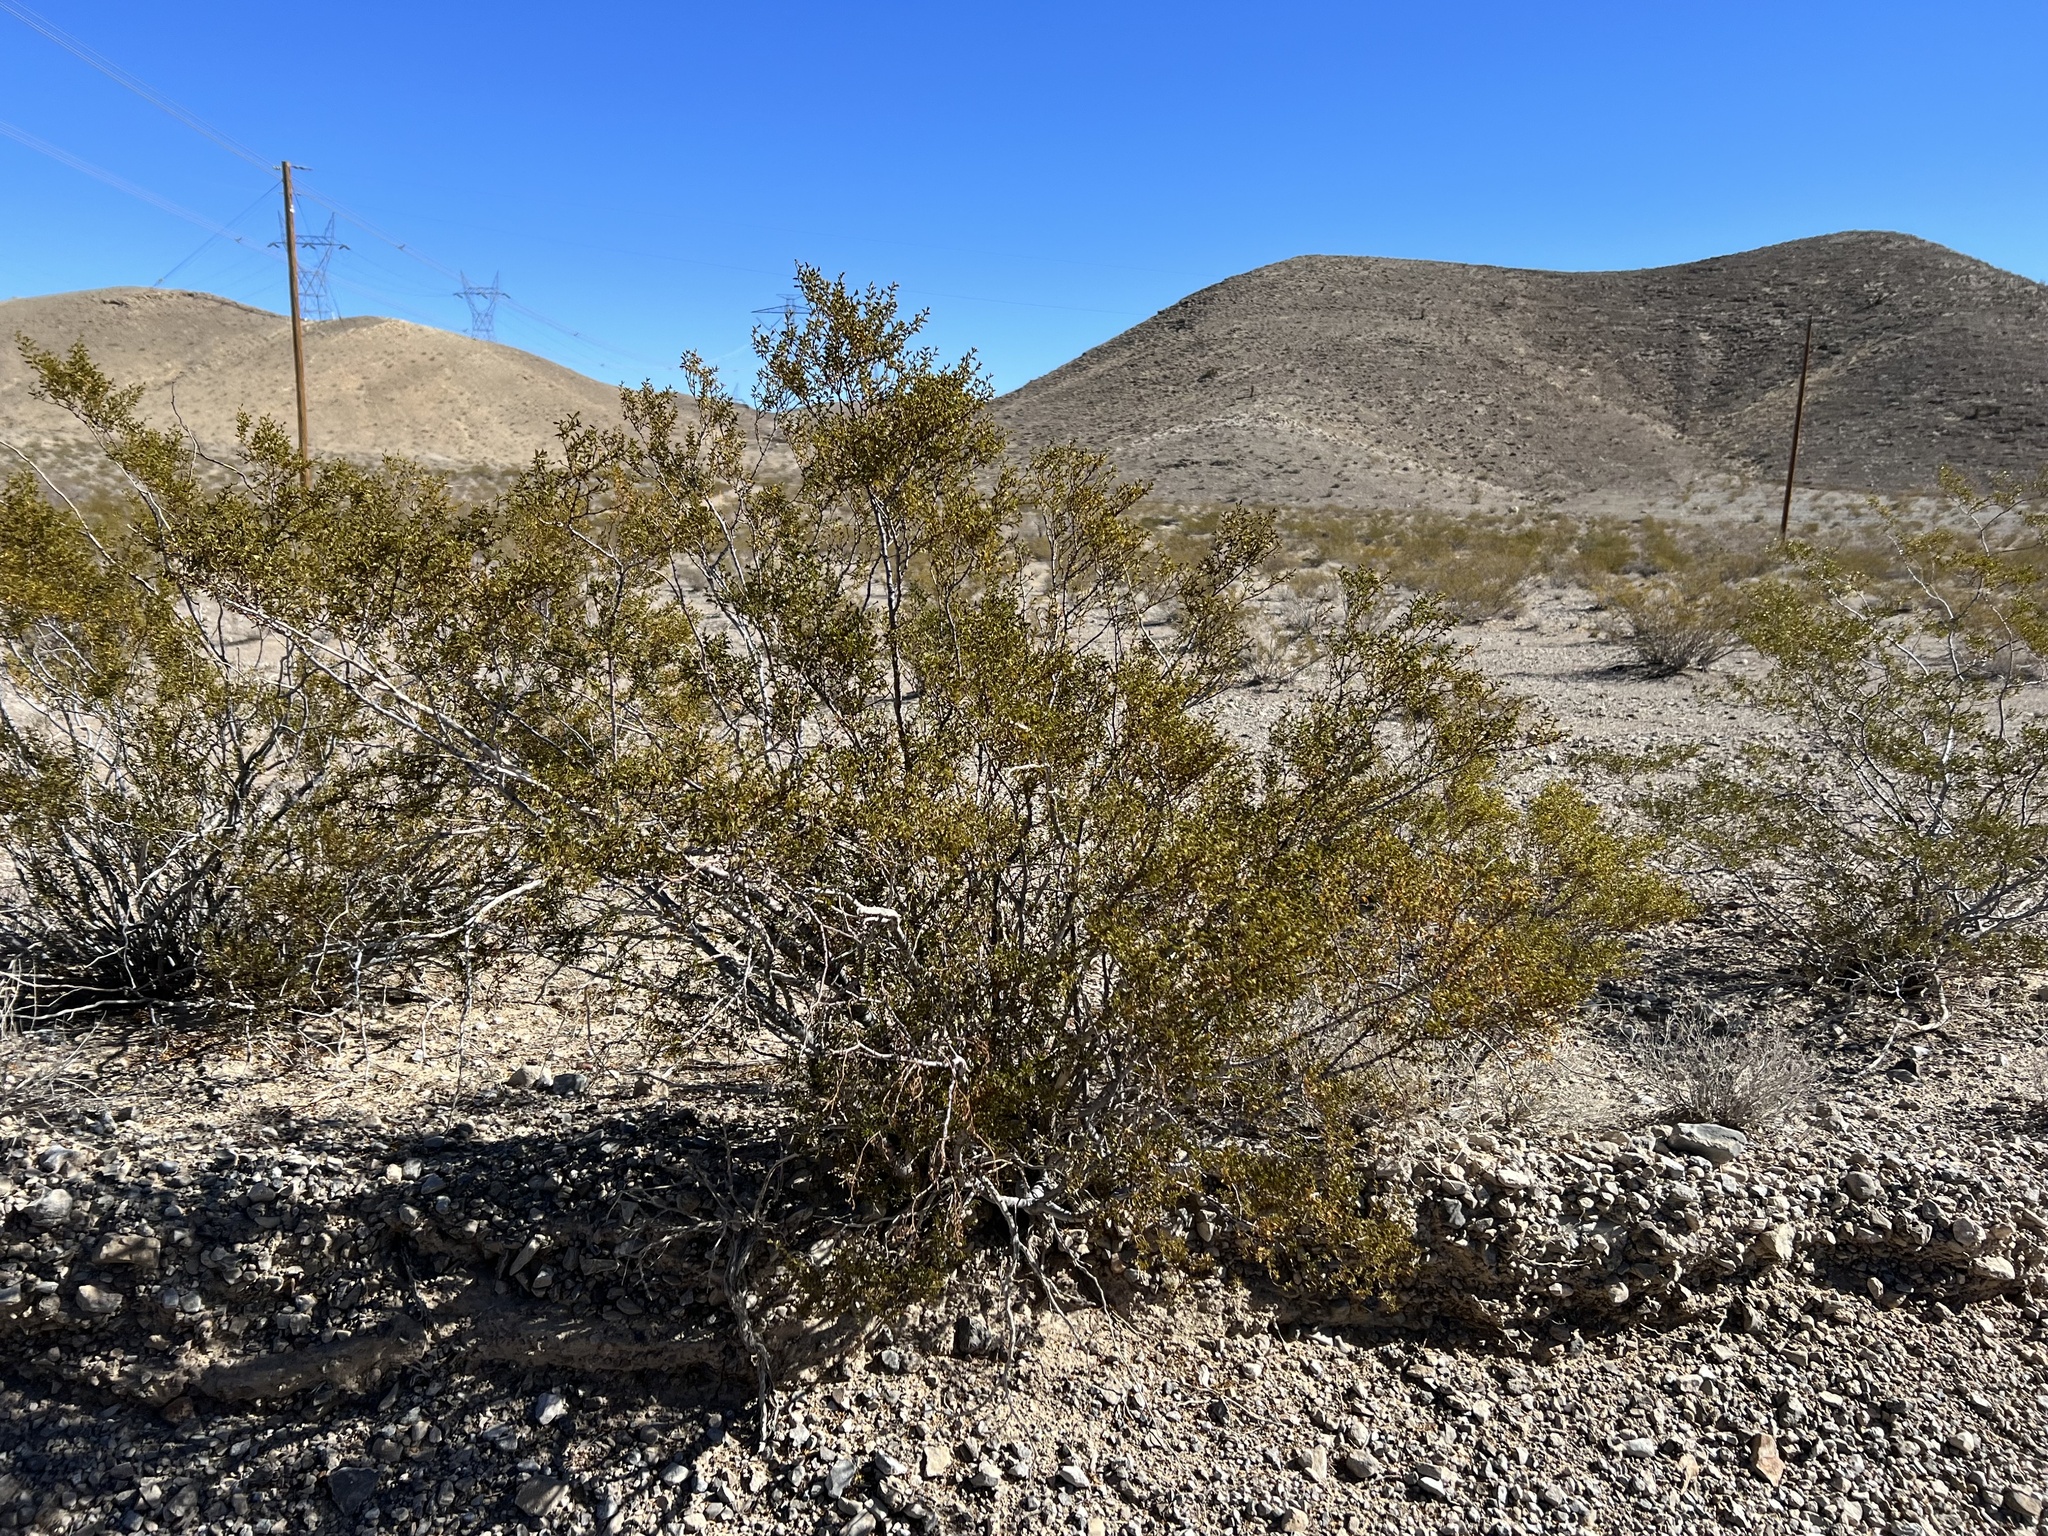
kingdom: Plantae
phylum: Tracheophyta
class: Magnoliopsida
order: Zygophyllales
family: Zygophyllaceae
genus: Larrea
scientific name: Larrea tridentata
